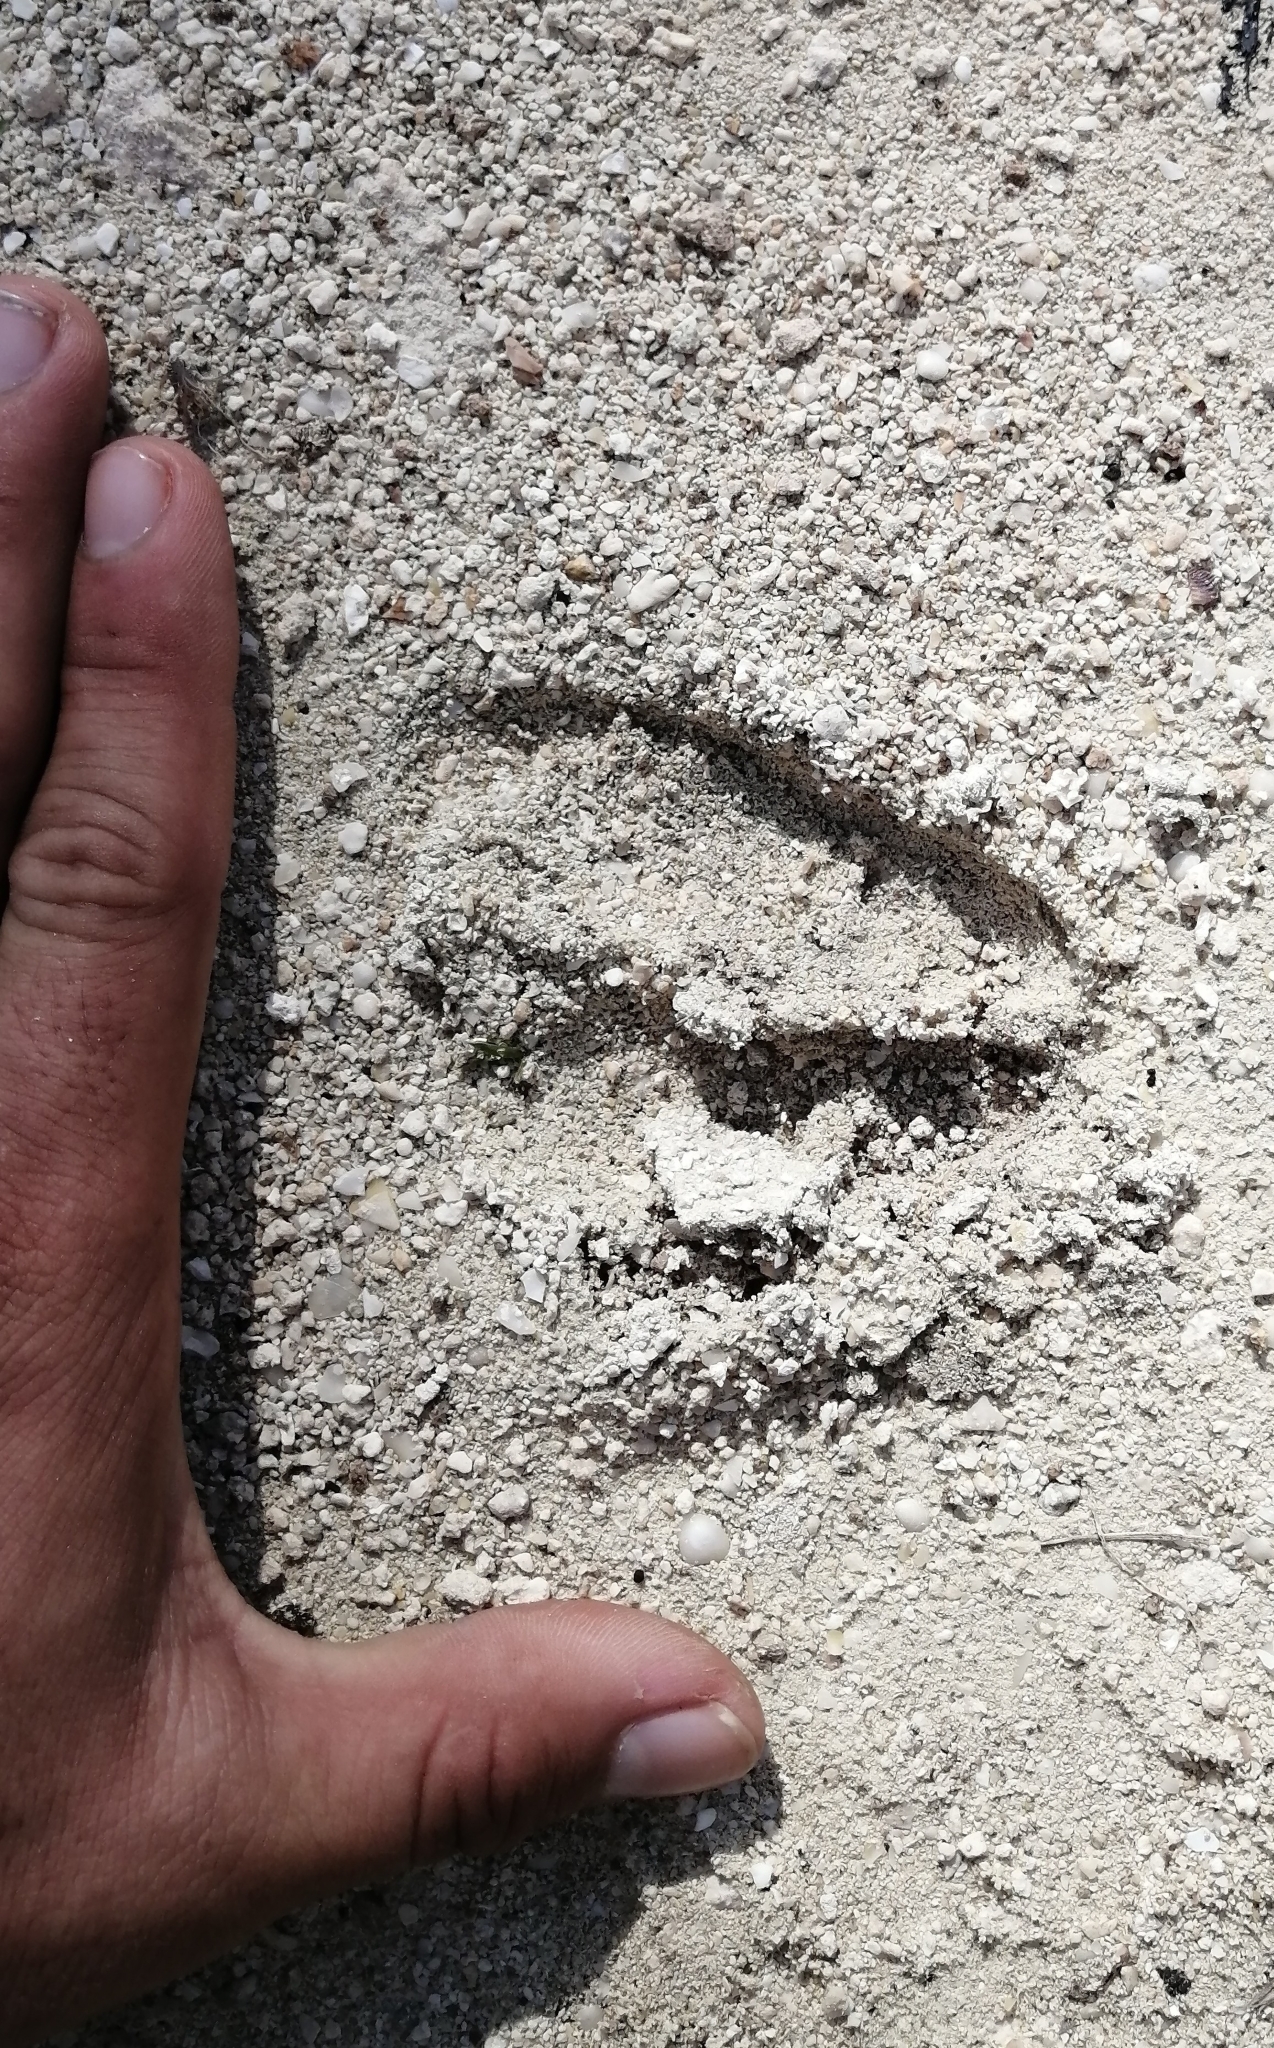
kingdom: Animalia
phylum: Chordata
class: Mammalia
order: Artiodactyla
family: Cervidae
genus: Odocoileus
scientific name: Odocoileus virginianus
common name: White-tailed deer
